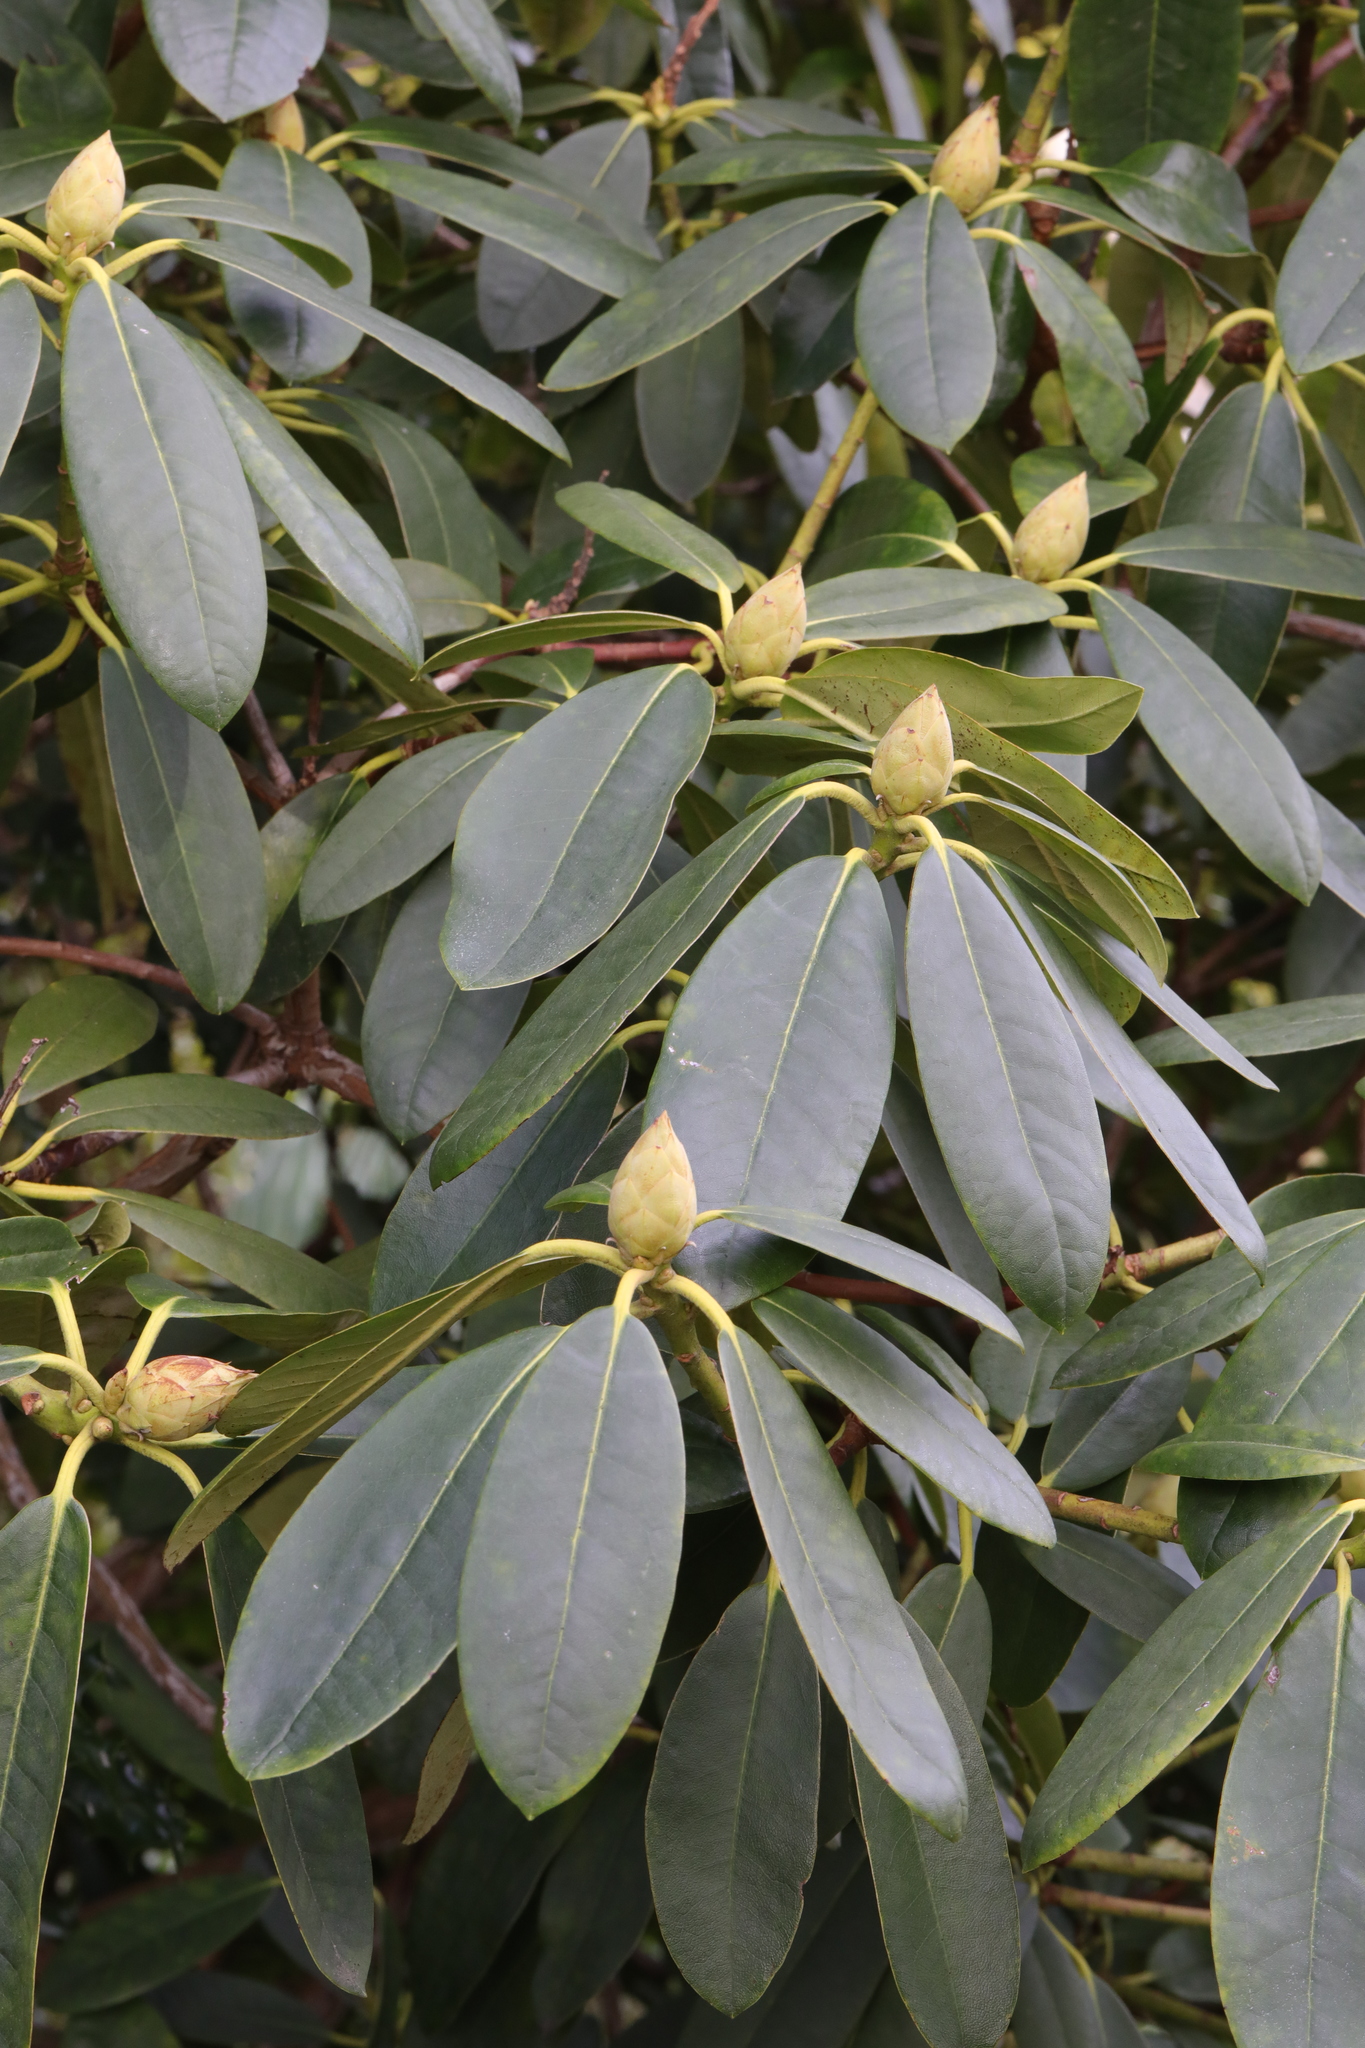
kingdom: Plantae
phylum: Tracheophyta
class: Magnoliopsida
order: Ericales
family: Ericaceae
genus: Rhododendron
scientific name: Rhododendron ponticum
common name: Rhododendron
